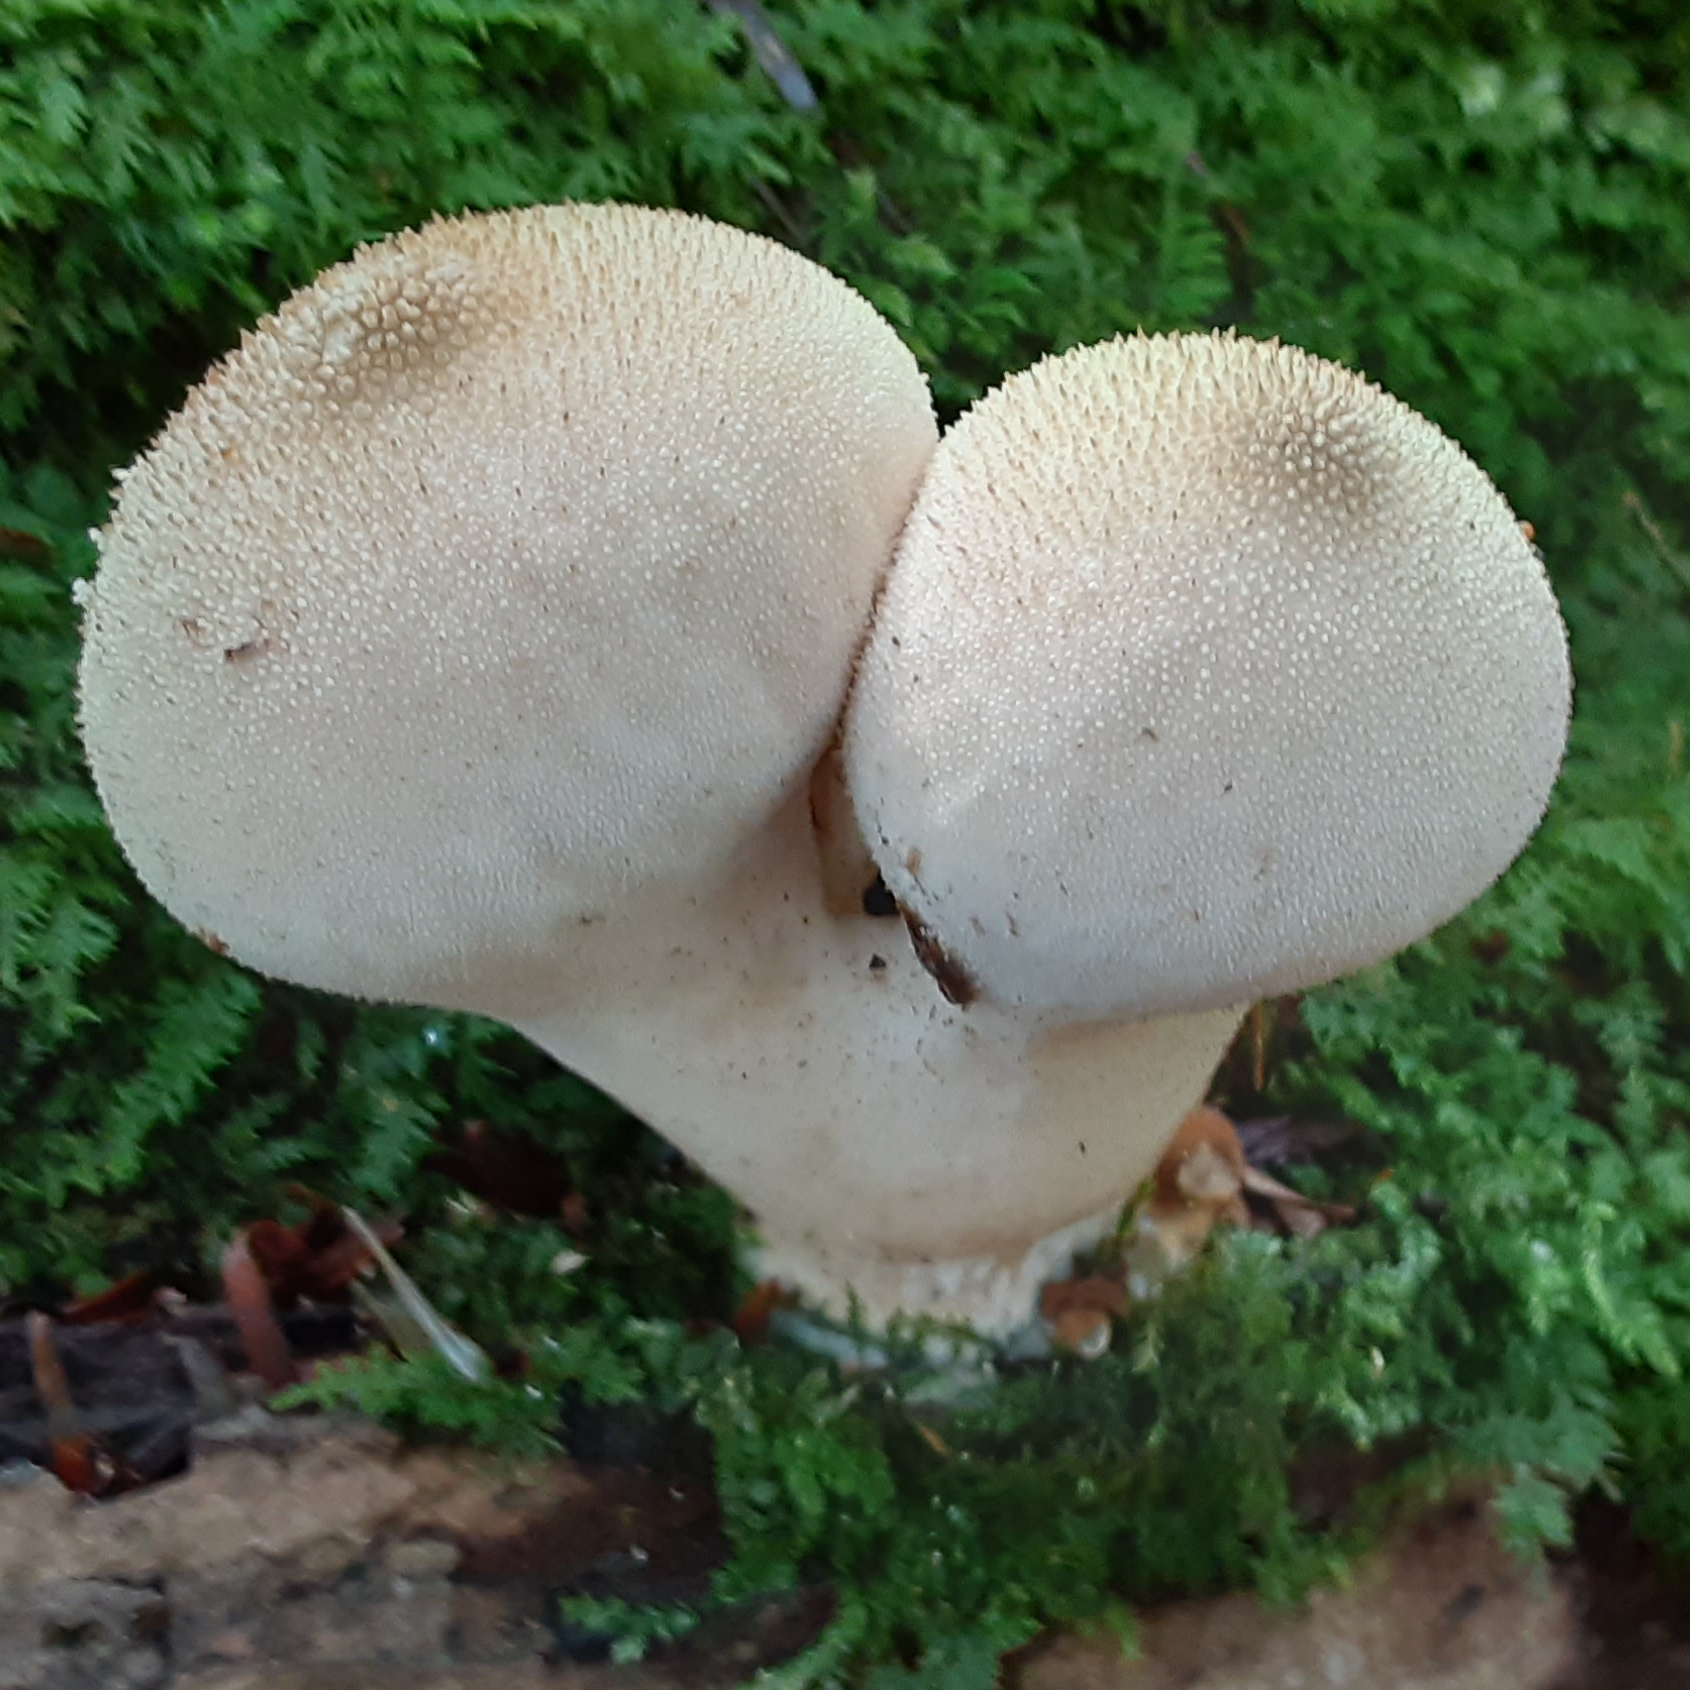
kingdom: Fungi
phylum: Basidiomycota
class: Agaricomycetes
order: Agaricales
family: Lycoperdaceae
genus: Lycoperdon
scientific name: Lycoperdon perlatum
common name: Common puffball
